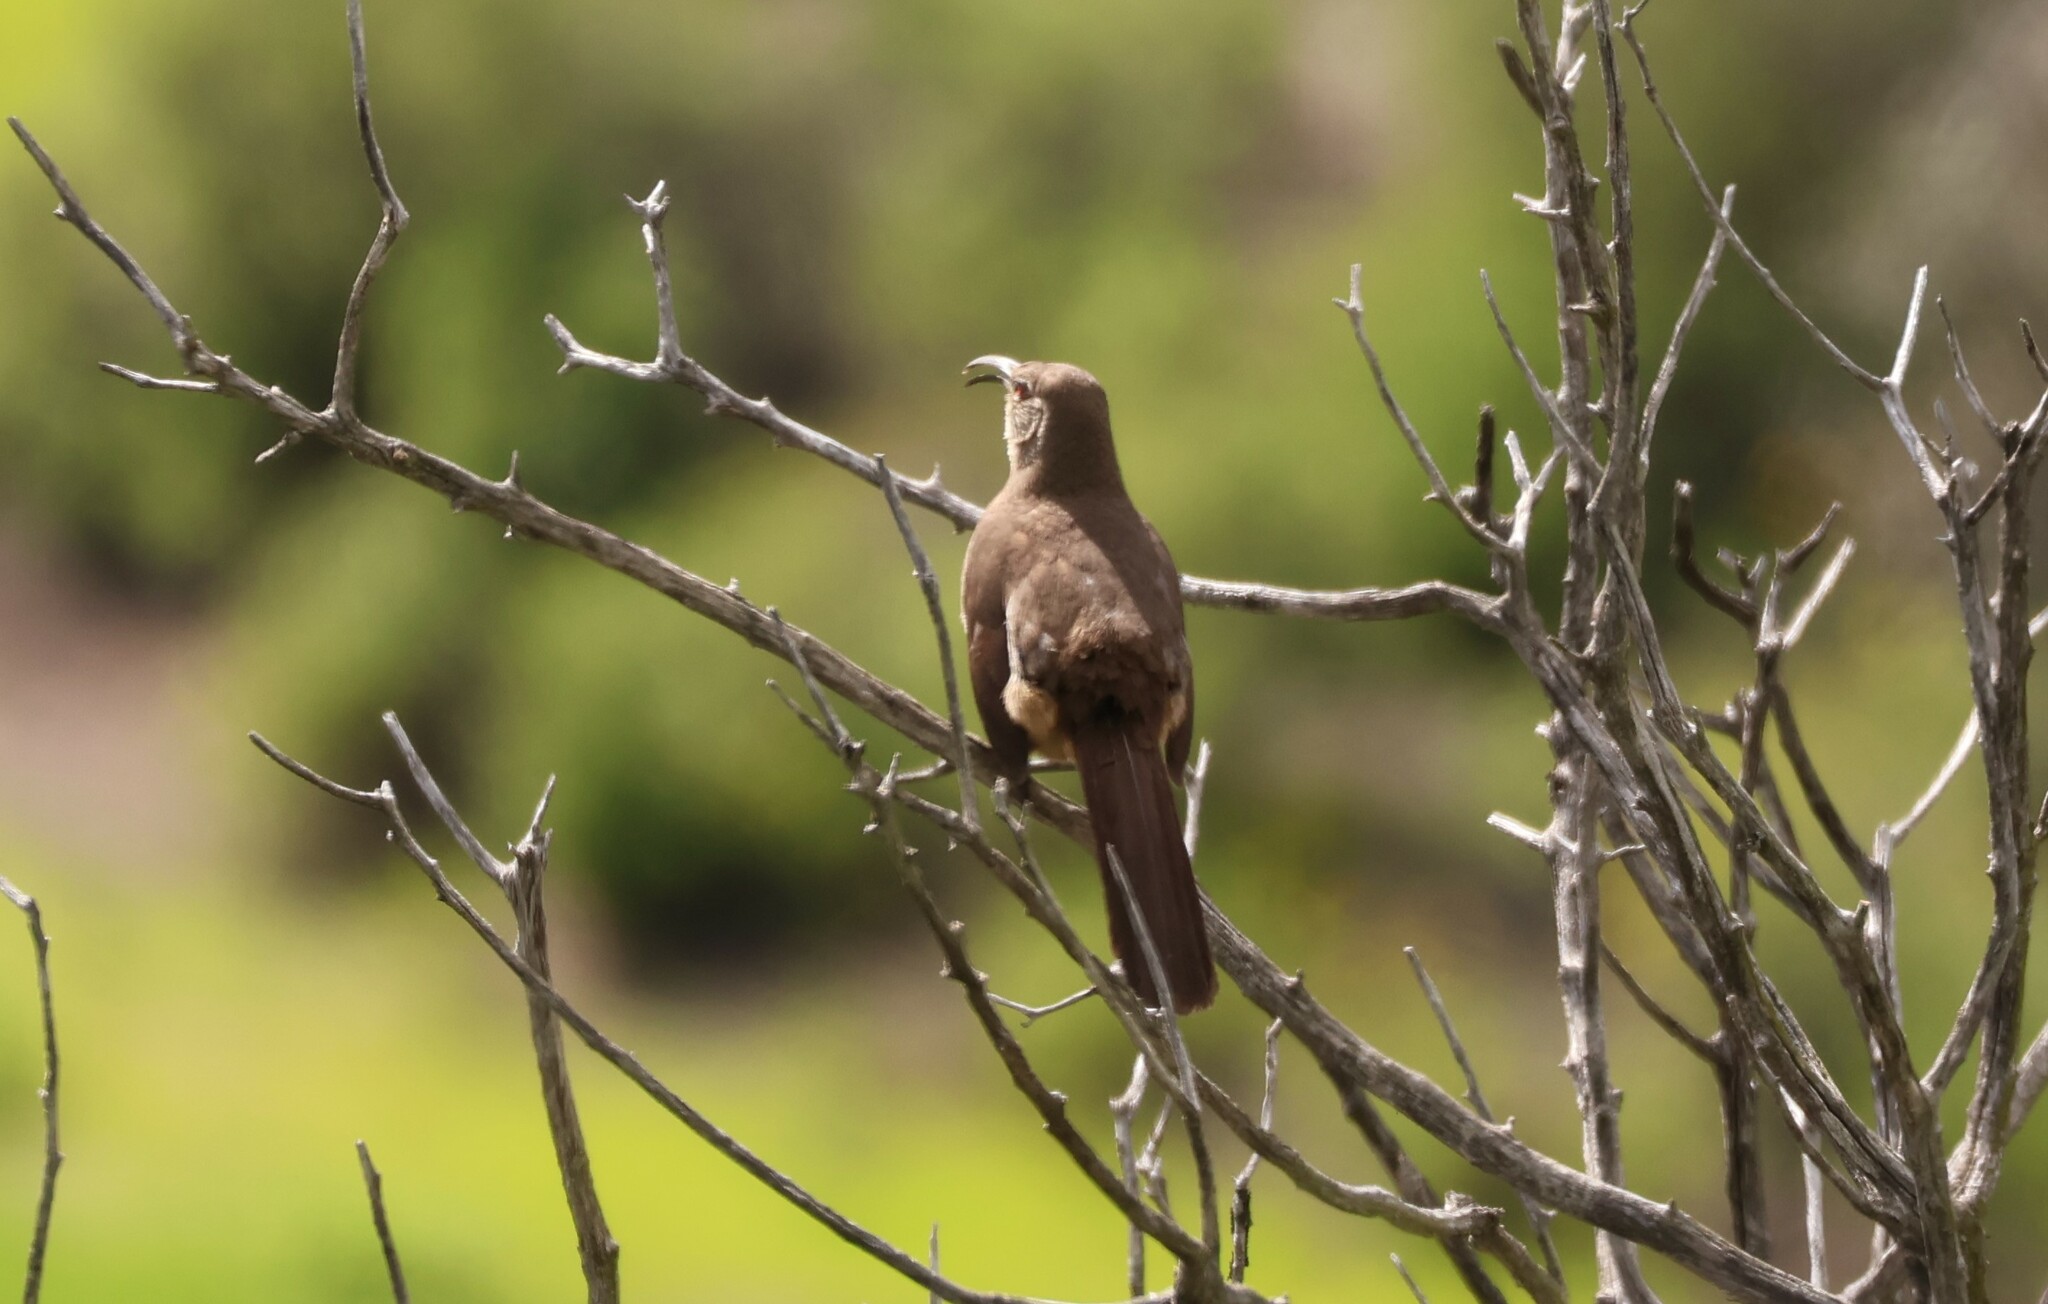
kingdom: Animalia
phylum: Chordata
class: Aves
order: Passeriformes
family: Mimidae
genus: Toxostoma
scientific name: Toxostoma redivivum
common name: California thrasher
